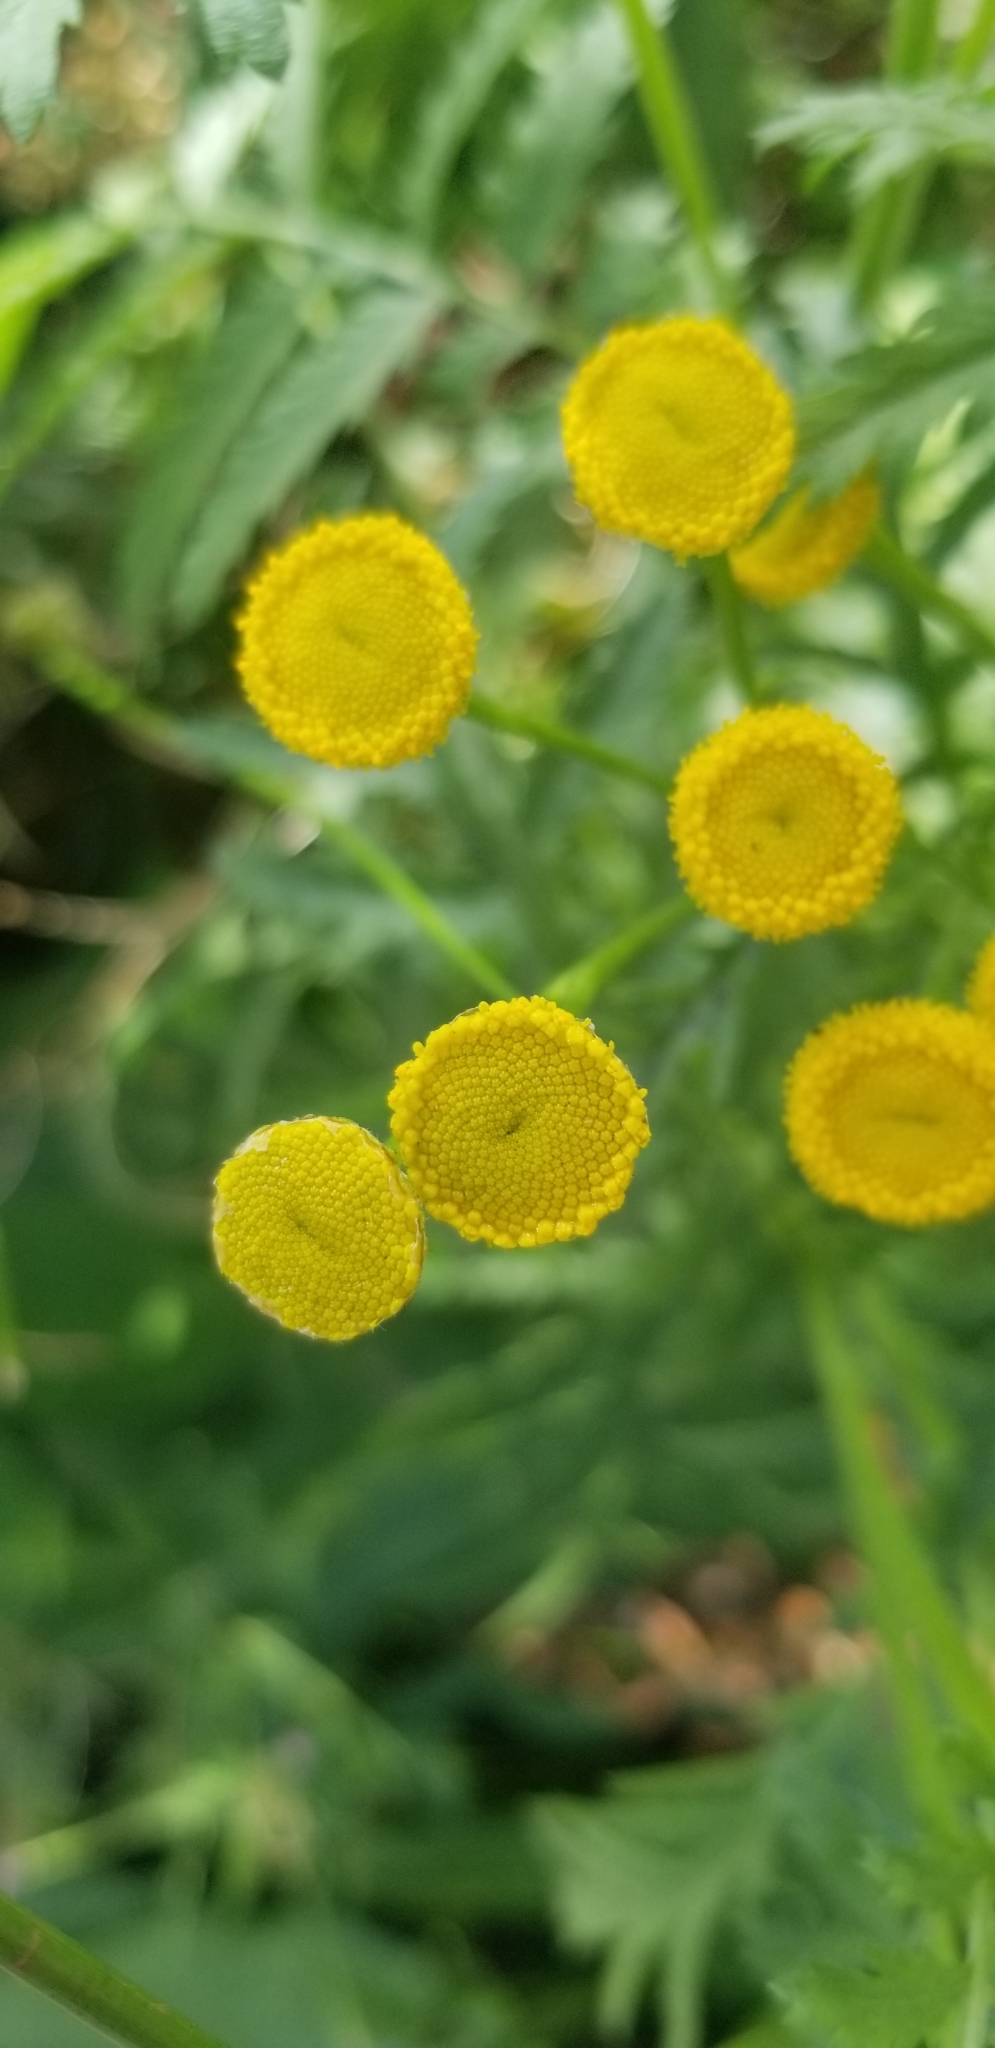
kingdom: Plantae
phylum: Tracheophyta
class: Magnoliopsida
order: Asterales
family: Asteraceae
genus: Tanacetum
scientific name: Tanacetum vulgare
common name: Common tansy
